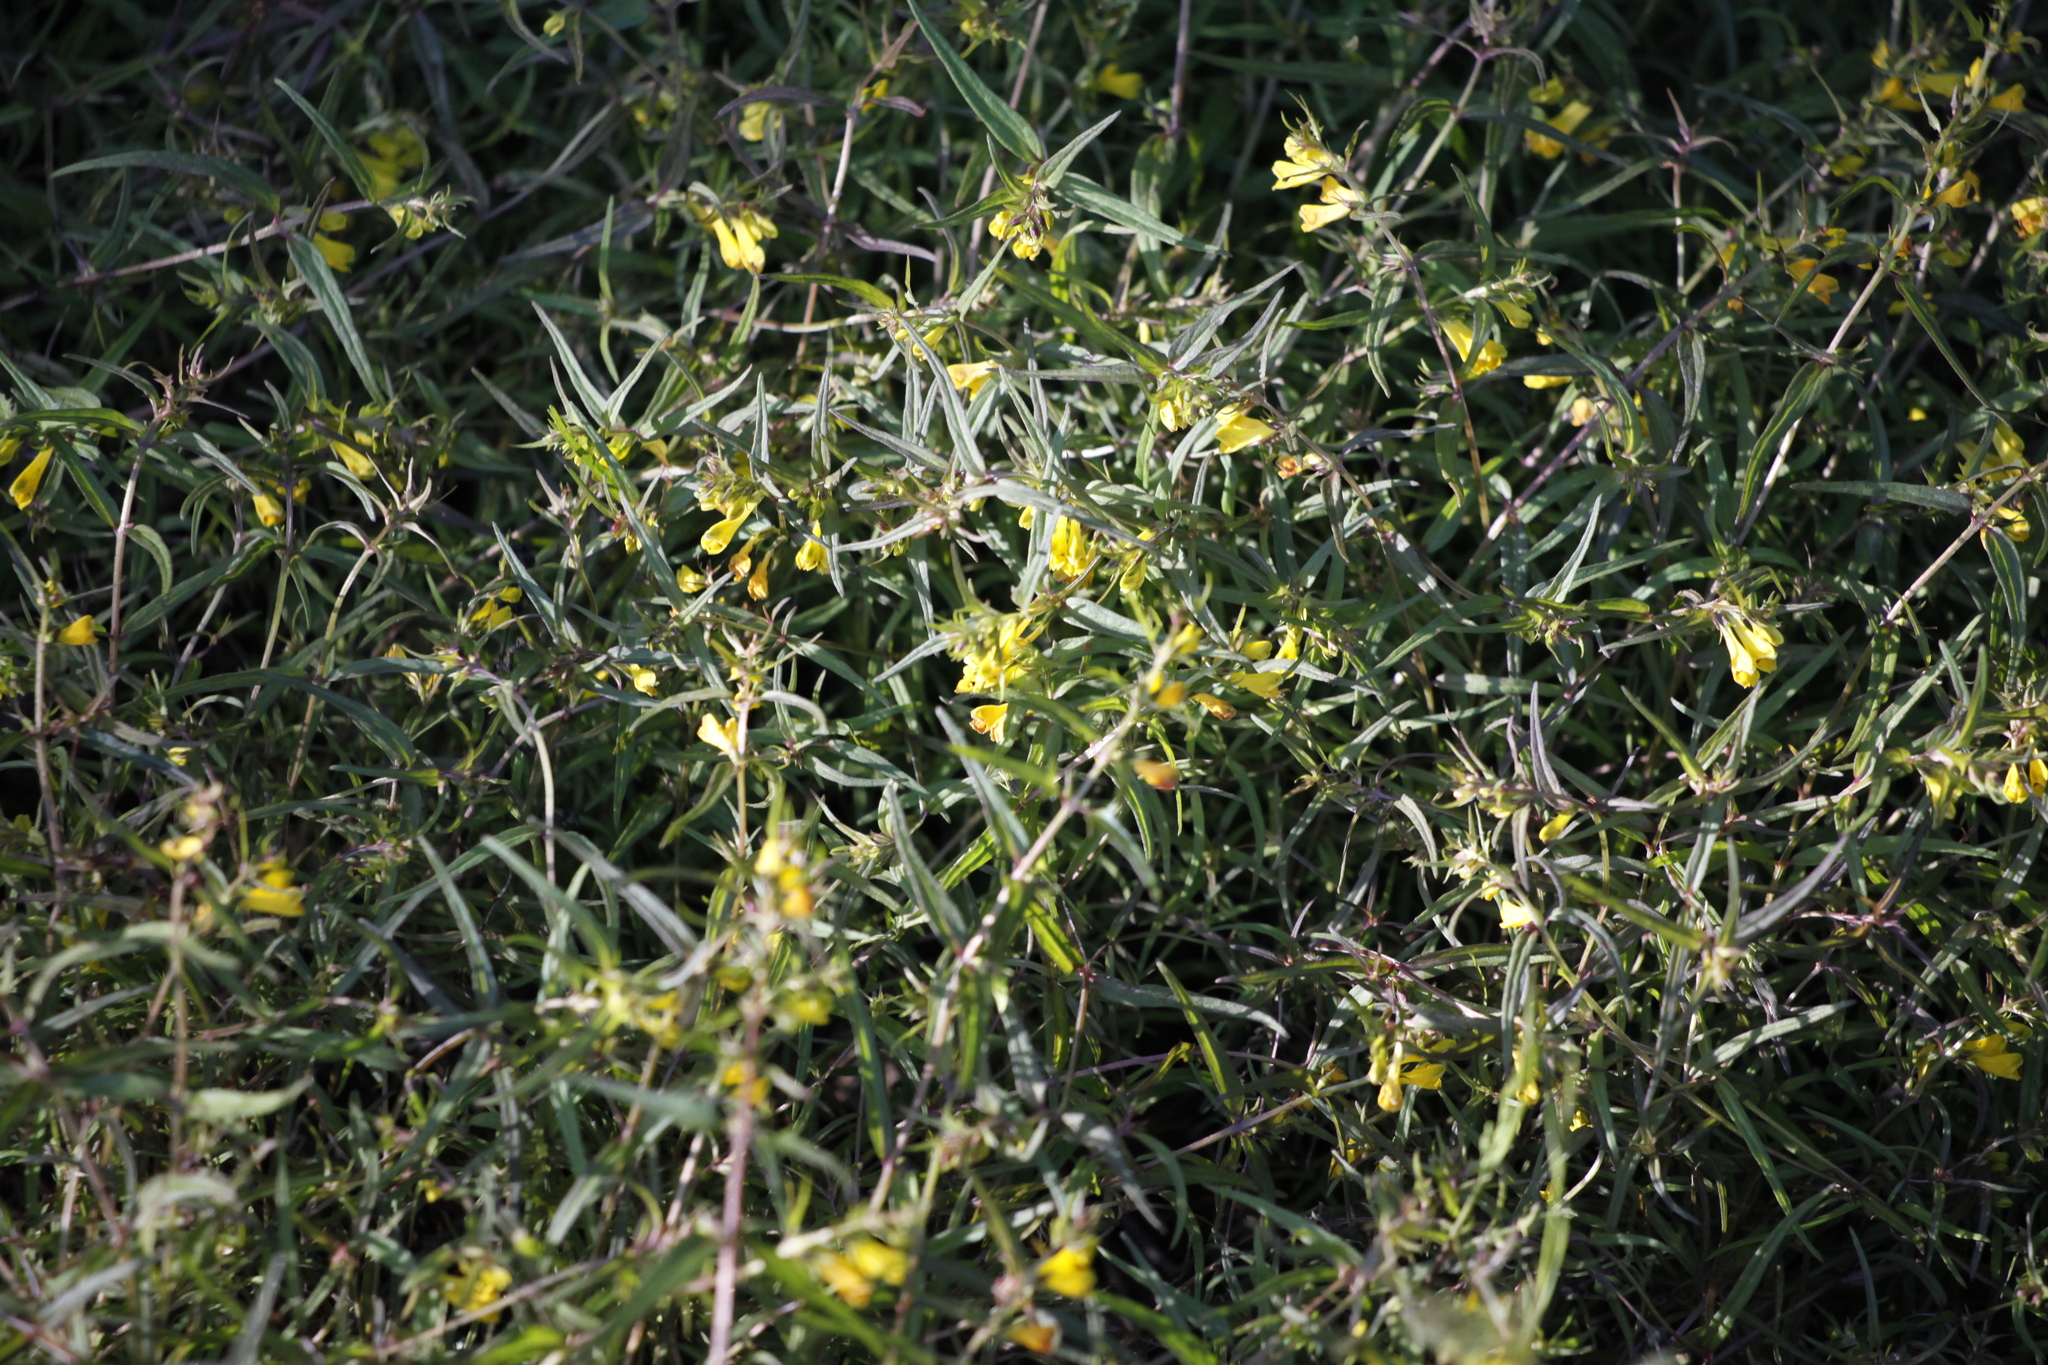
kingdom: Plantae
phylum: Tracheophyta
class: Magnoliopsida
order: Lamiales
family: Orobanchaceae
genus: Melampyrum
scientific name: Melampyrum pratense
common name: Common cow-wheat
